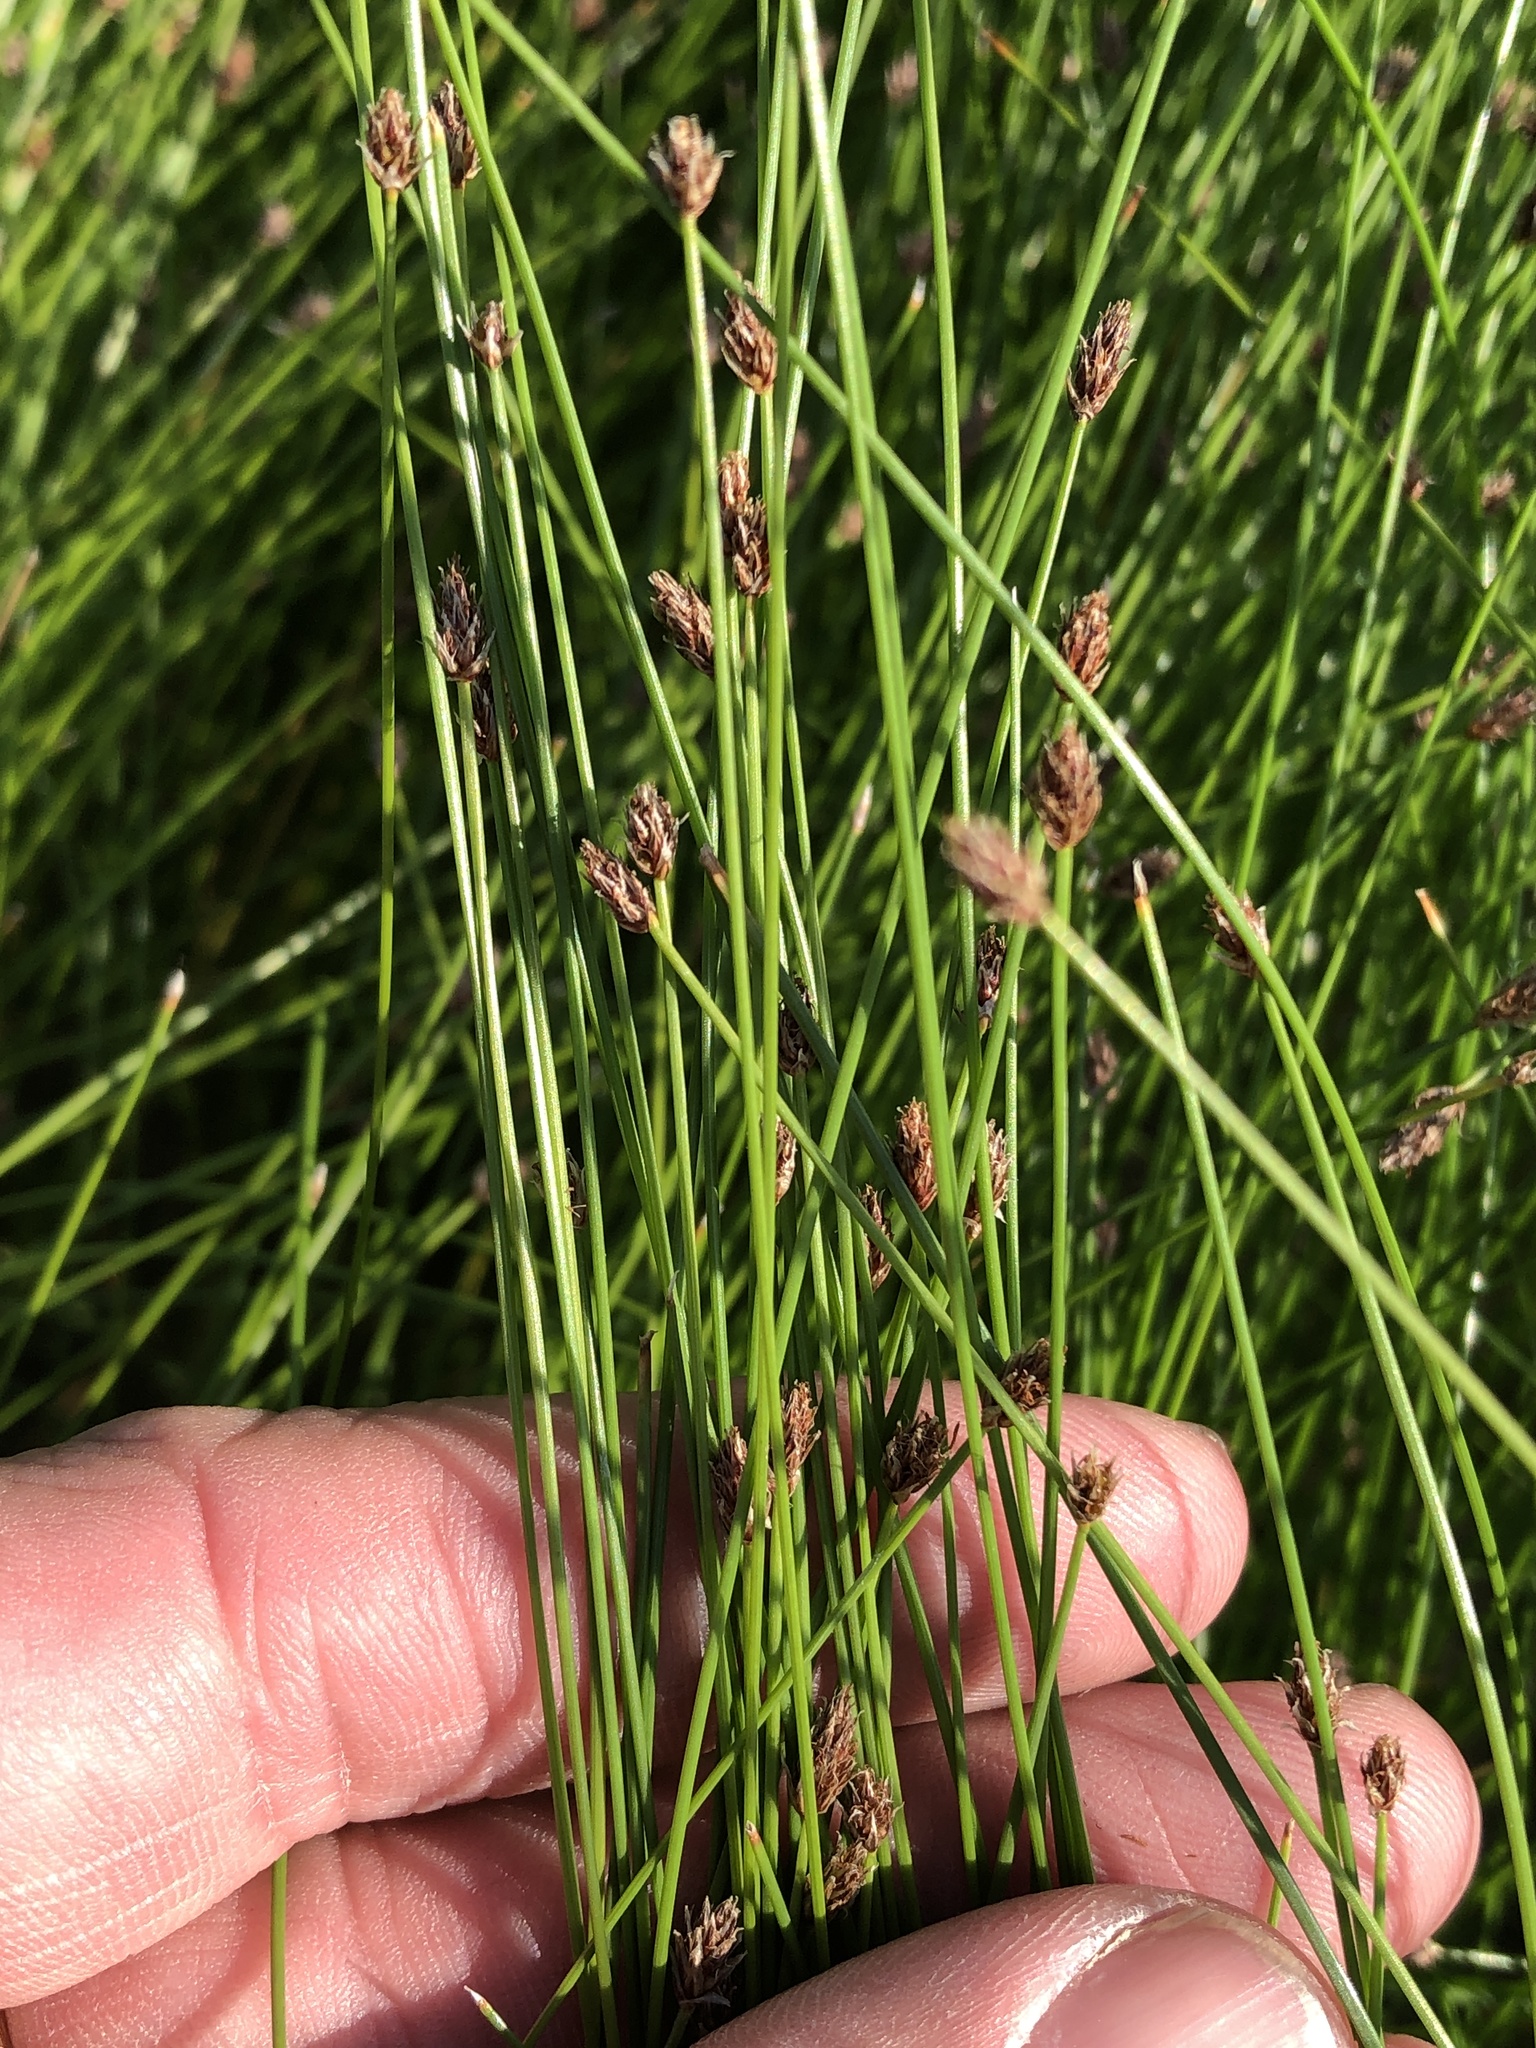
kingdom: Plantae
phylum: Tracheophyta
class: Liliopsida
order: Poales
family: Cyperaceae
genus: Eleocharis
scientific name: Eleocharis occulta
